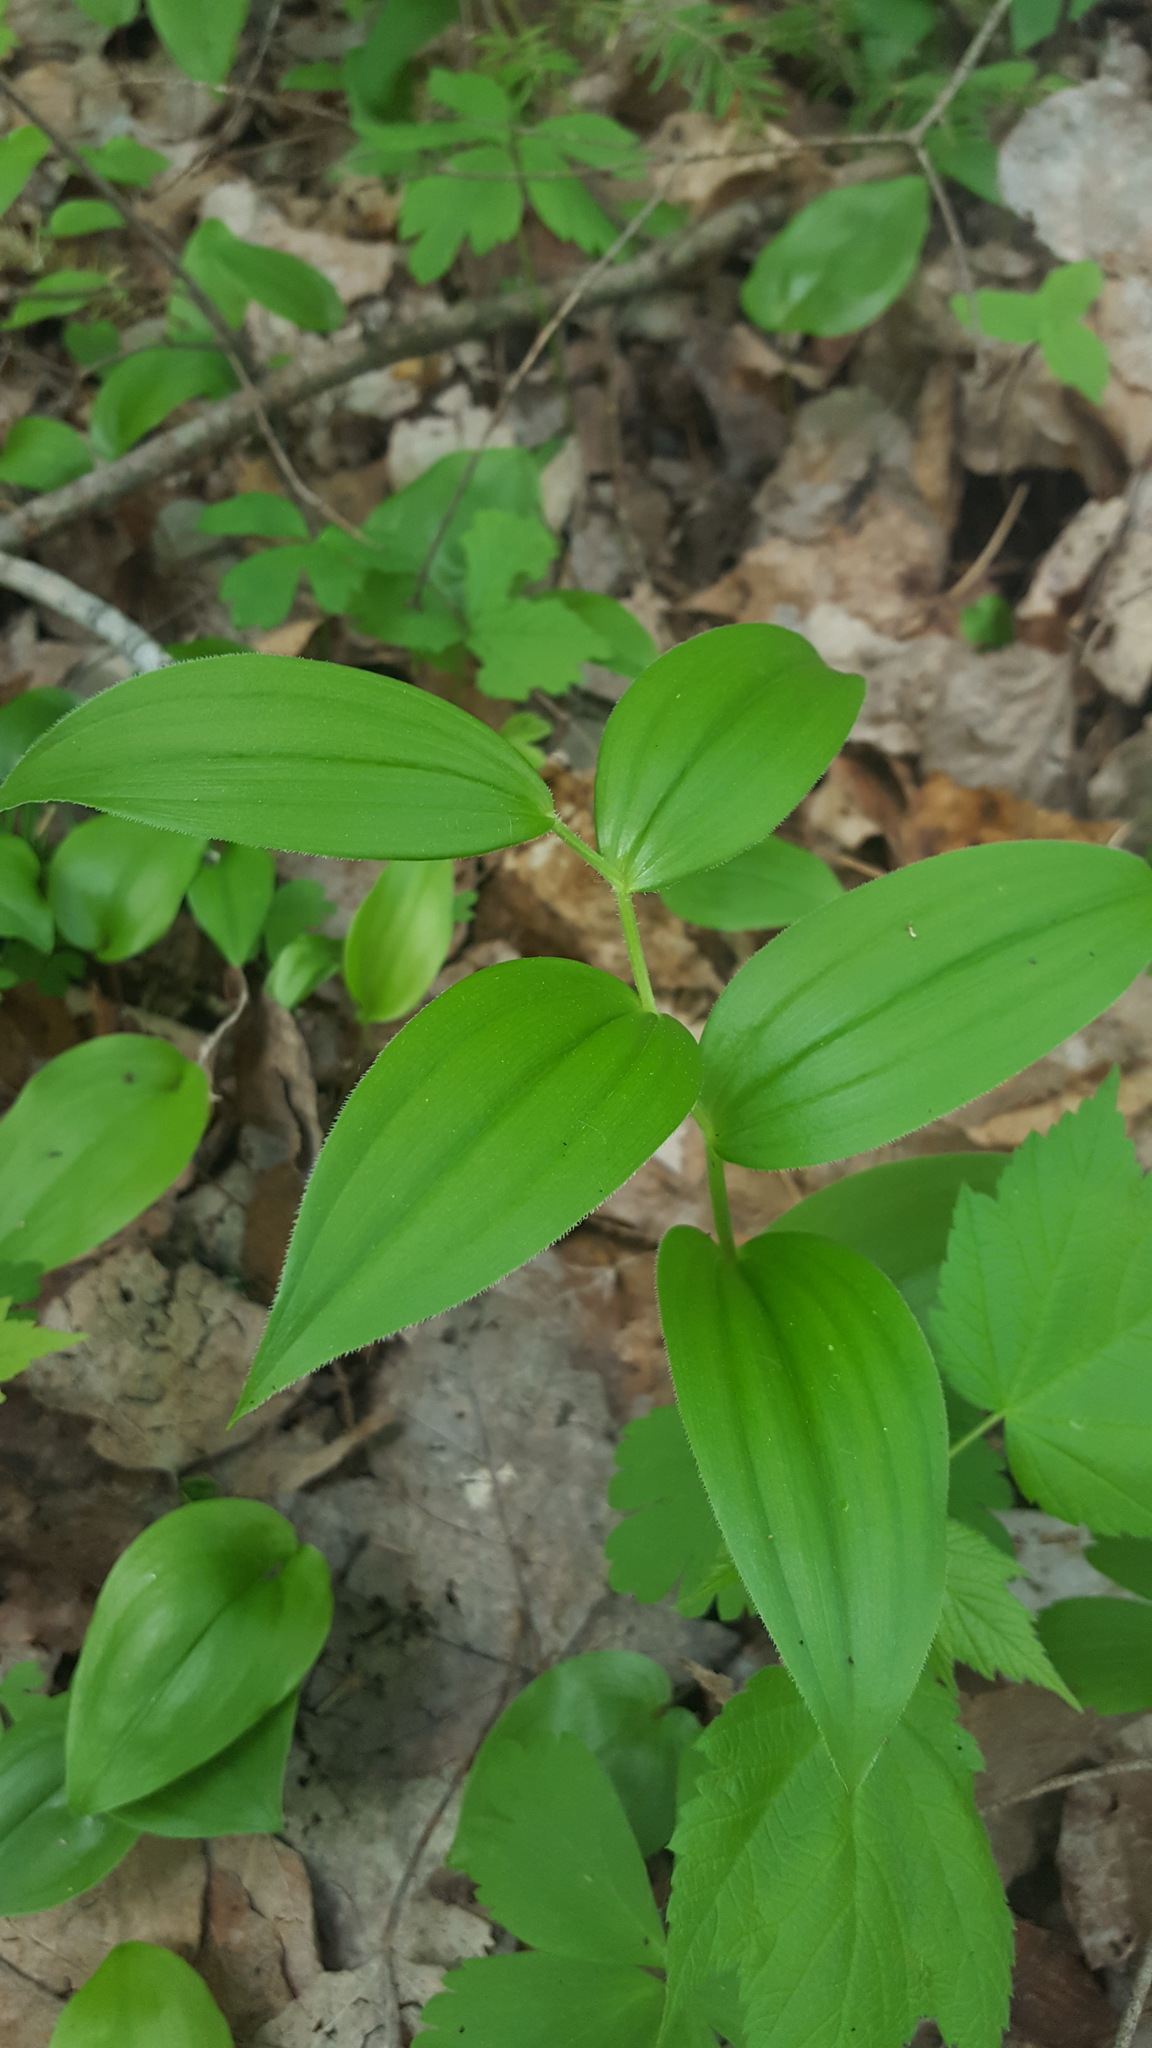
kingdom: Plantae
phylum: Tracheophyta
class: Liliopsida
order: Liliales
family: Liliaceae
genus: Streptopus
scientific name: Streptopus lanceolatus
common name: Rose mandarin
